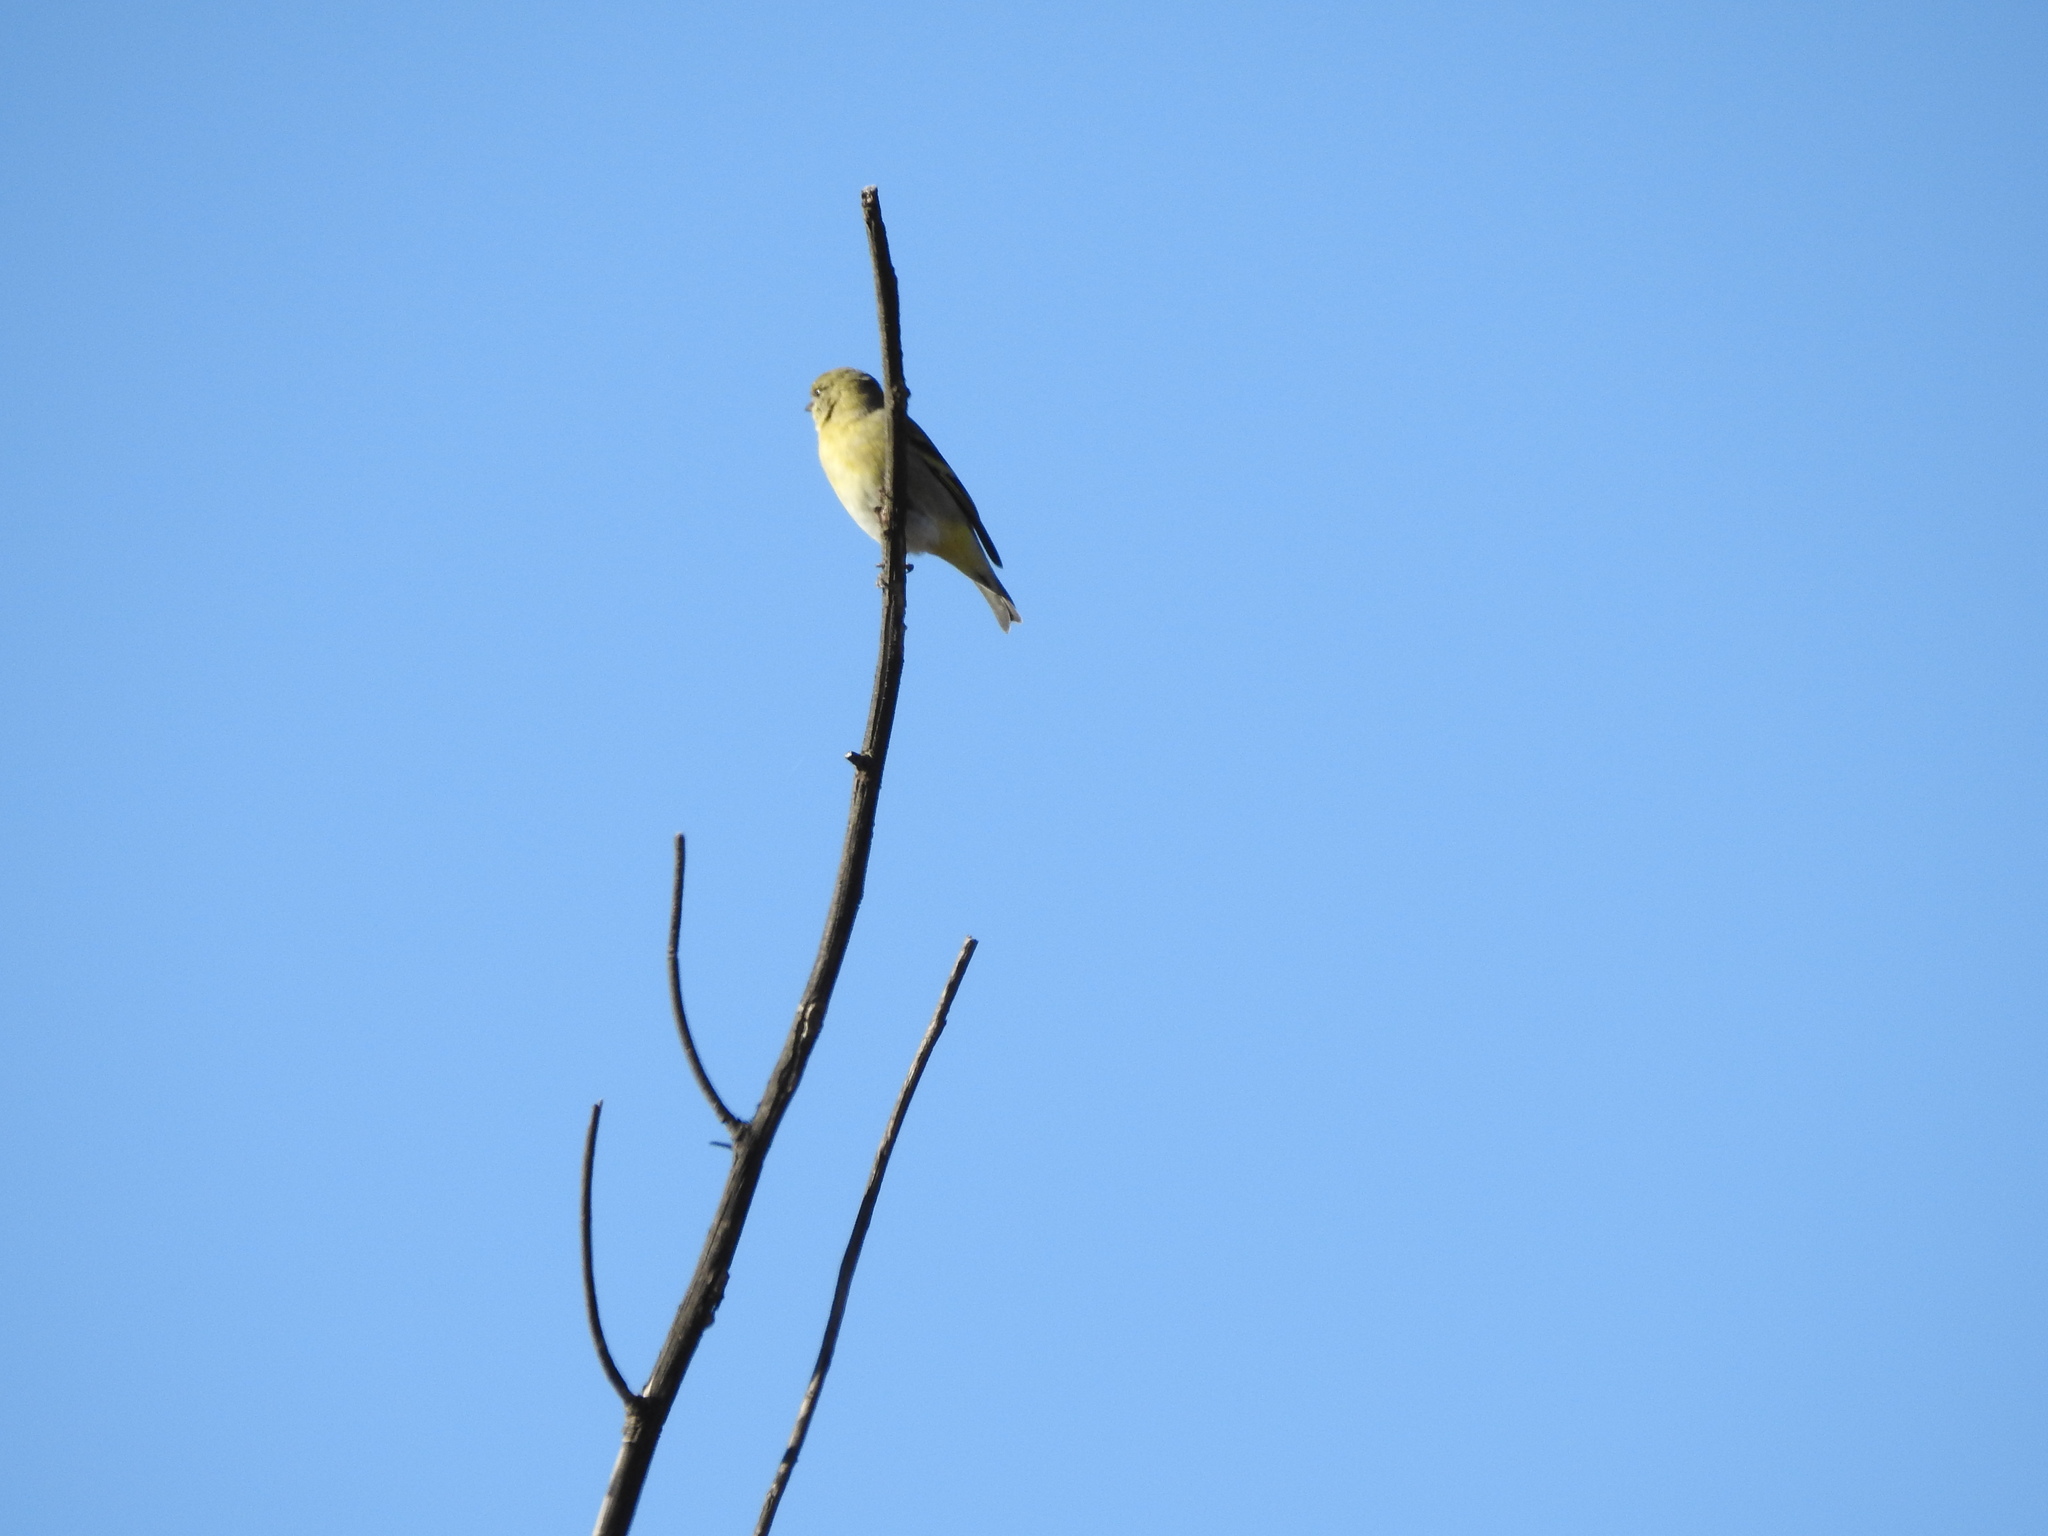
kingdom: Animalia
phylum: Chordata
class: Aves
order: Passeriformes
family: Fringillidae
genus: Spinus
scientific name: Spinus magellanicus
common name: Hooded siskin
